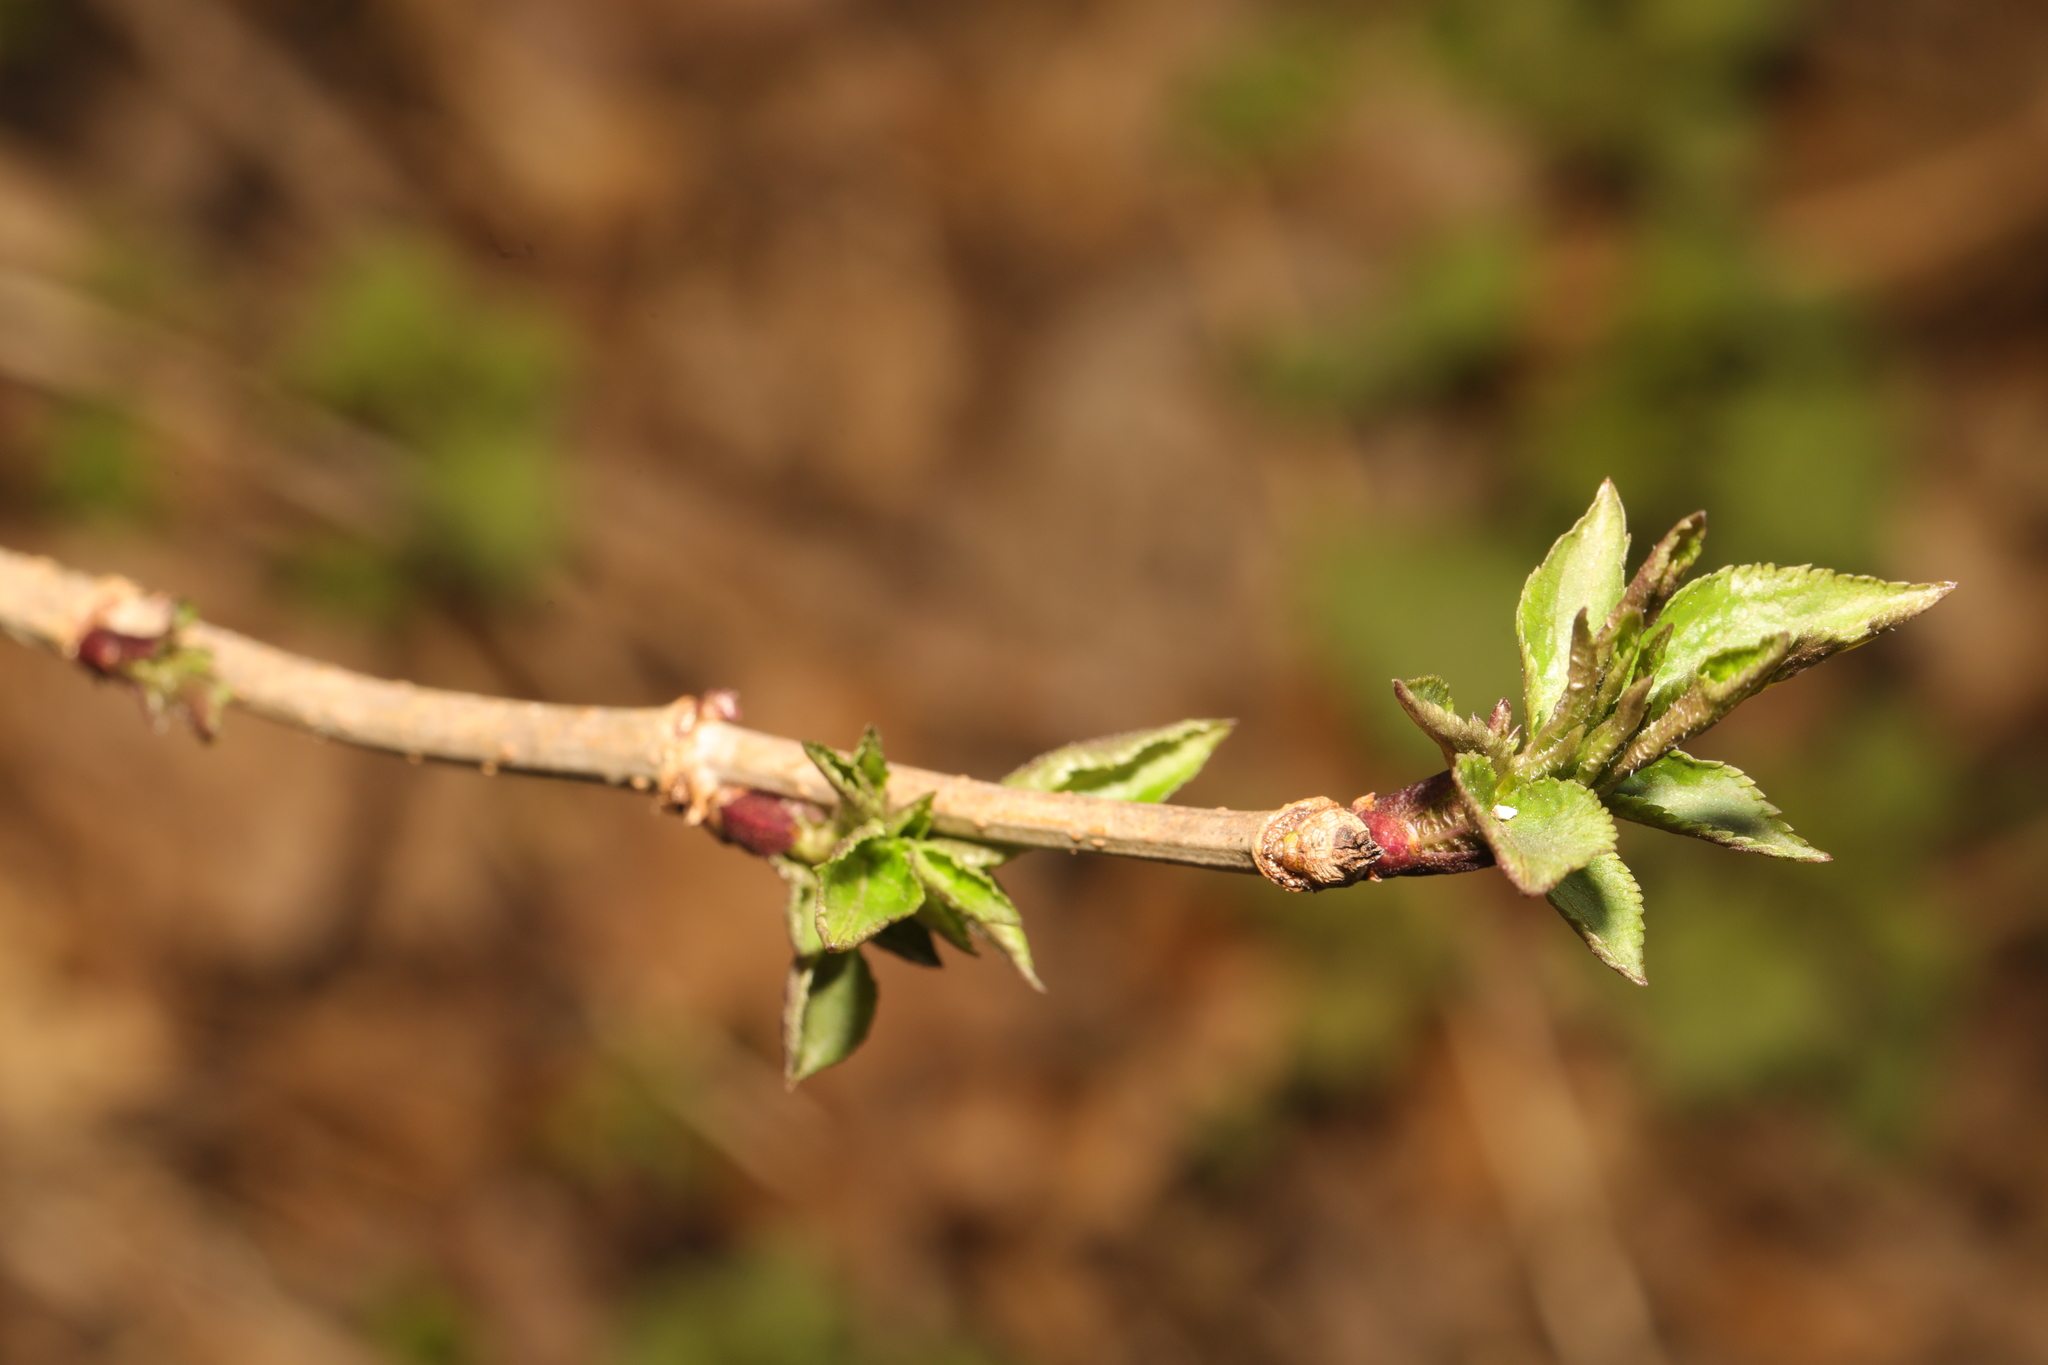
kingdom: Plantae
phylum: Tracheophyta
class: Magnoliopsida
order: Dipsacales
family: Viburnaceae
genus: Sambucus
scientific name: Sambucus nigra
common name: Elder
